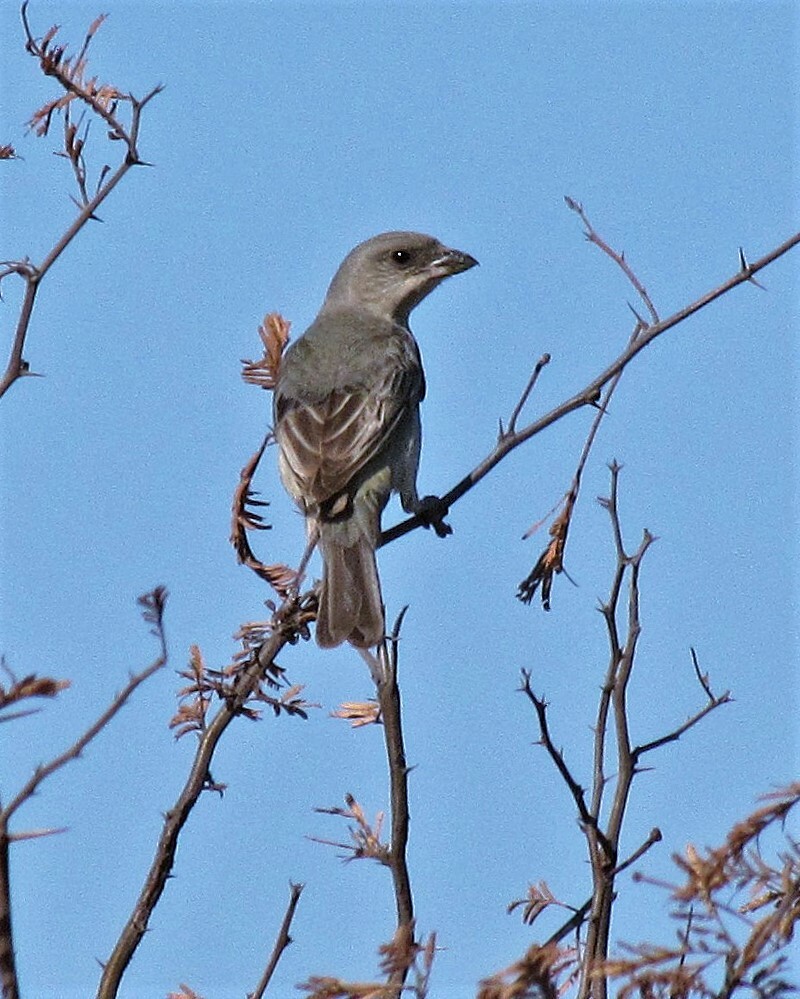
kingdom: Animalia
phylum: Chordata
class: Aves
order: Passeriformes
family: Thraupidae
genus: Rauenia
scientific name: Rauenia bonariensis
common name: Blue-and-yellow tanager
